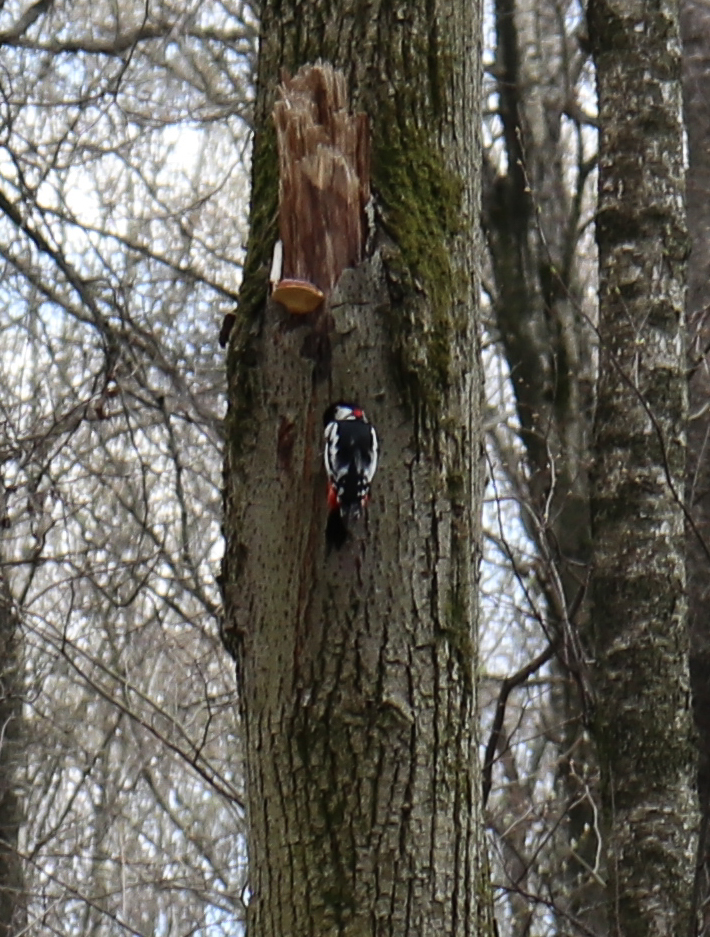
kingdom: Animalia
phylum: Chordata
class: Aves
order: Piciformes
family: Picidae
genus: Dendrocopos
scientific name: Dendrocopos major
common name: Great spotted woodpecker
